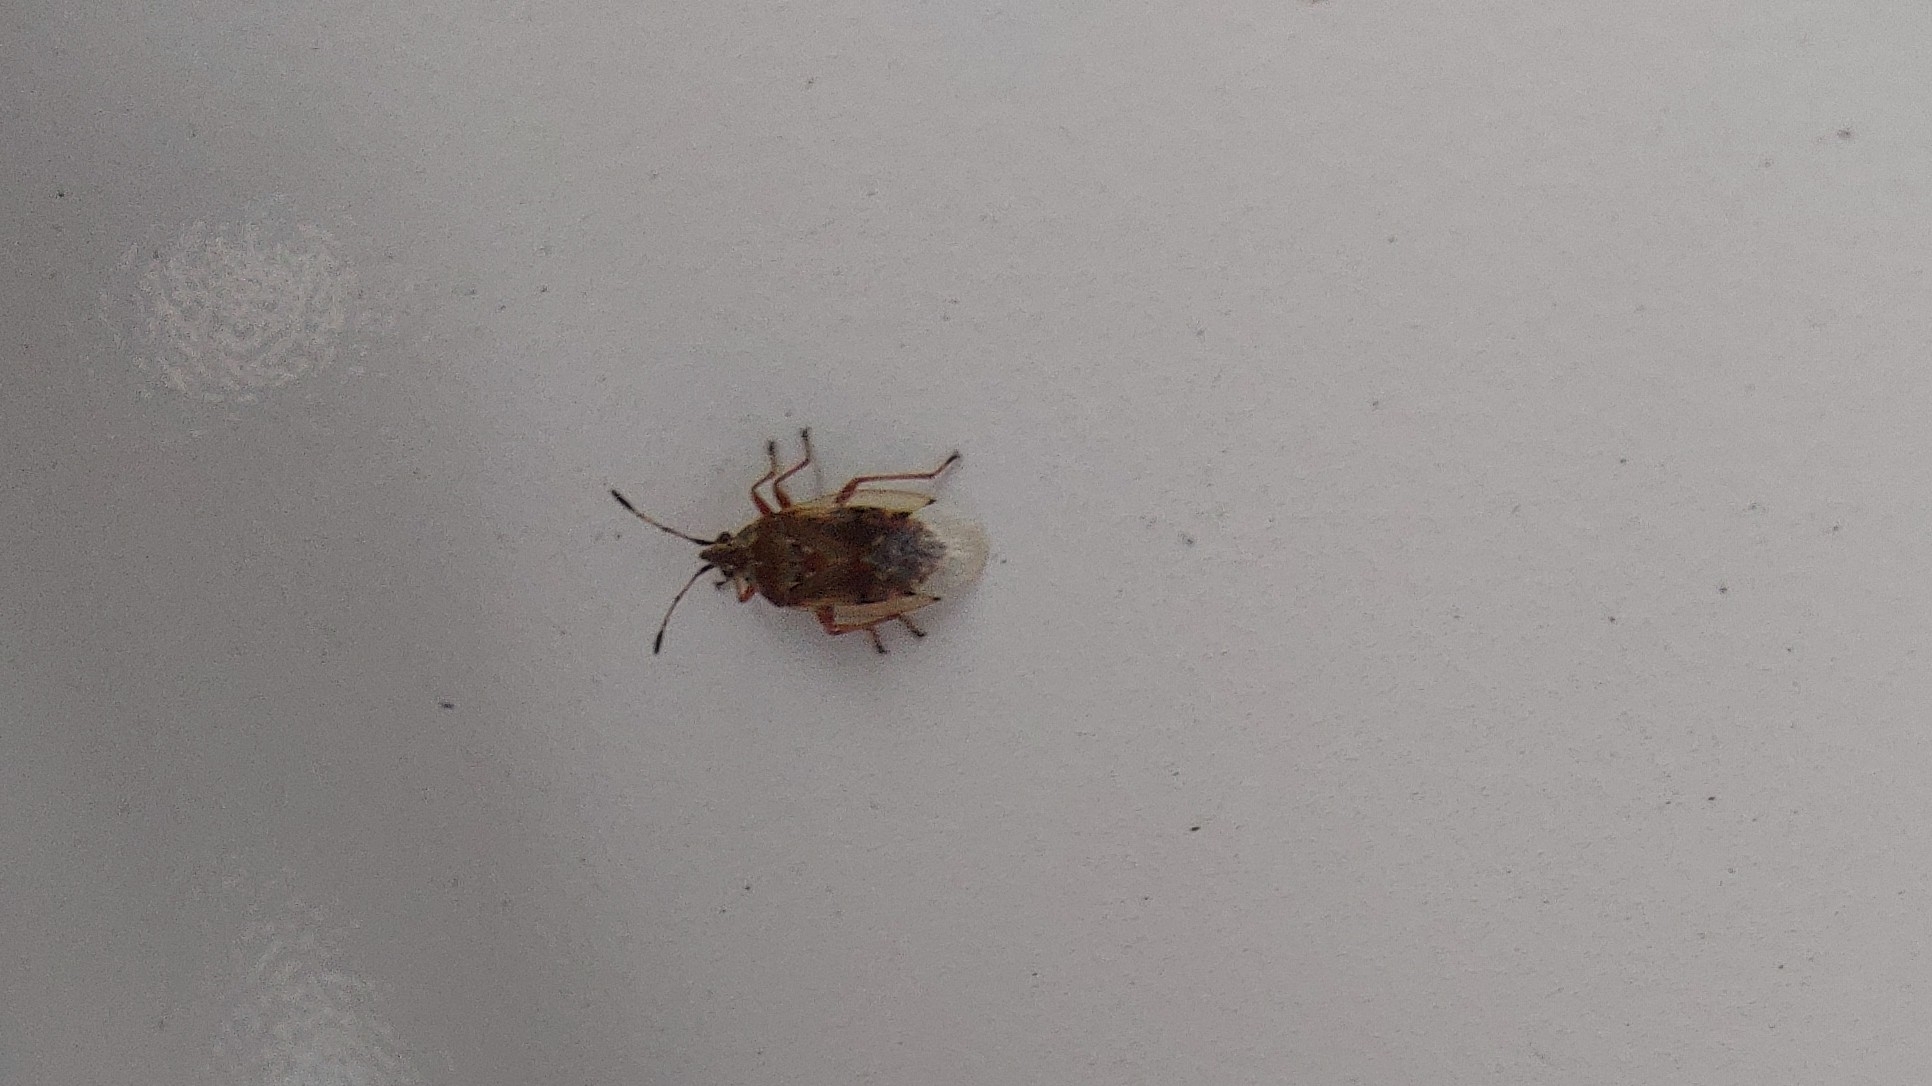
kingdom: Animalia
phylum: Arthropoda
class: Insecta
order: Hemiptera
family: Lygaeidae
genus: Kleidocerys
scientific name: Kleidocerys resedae
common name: Birch catkin bug
